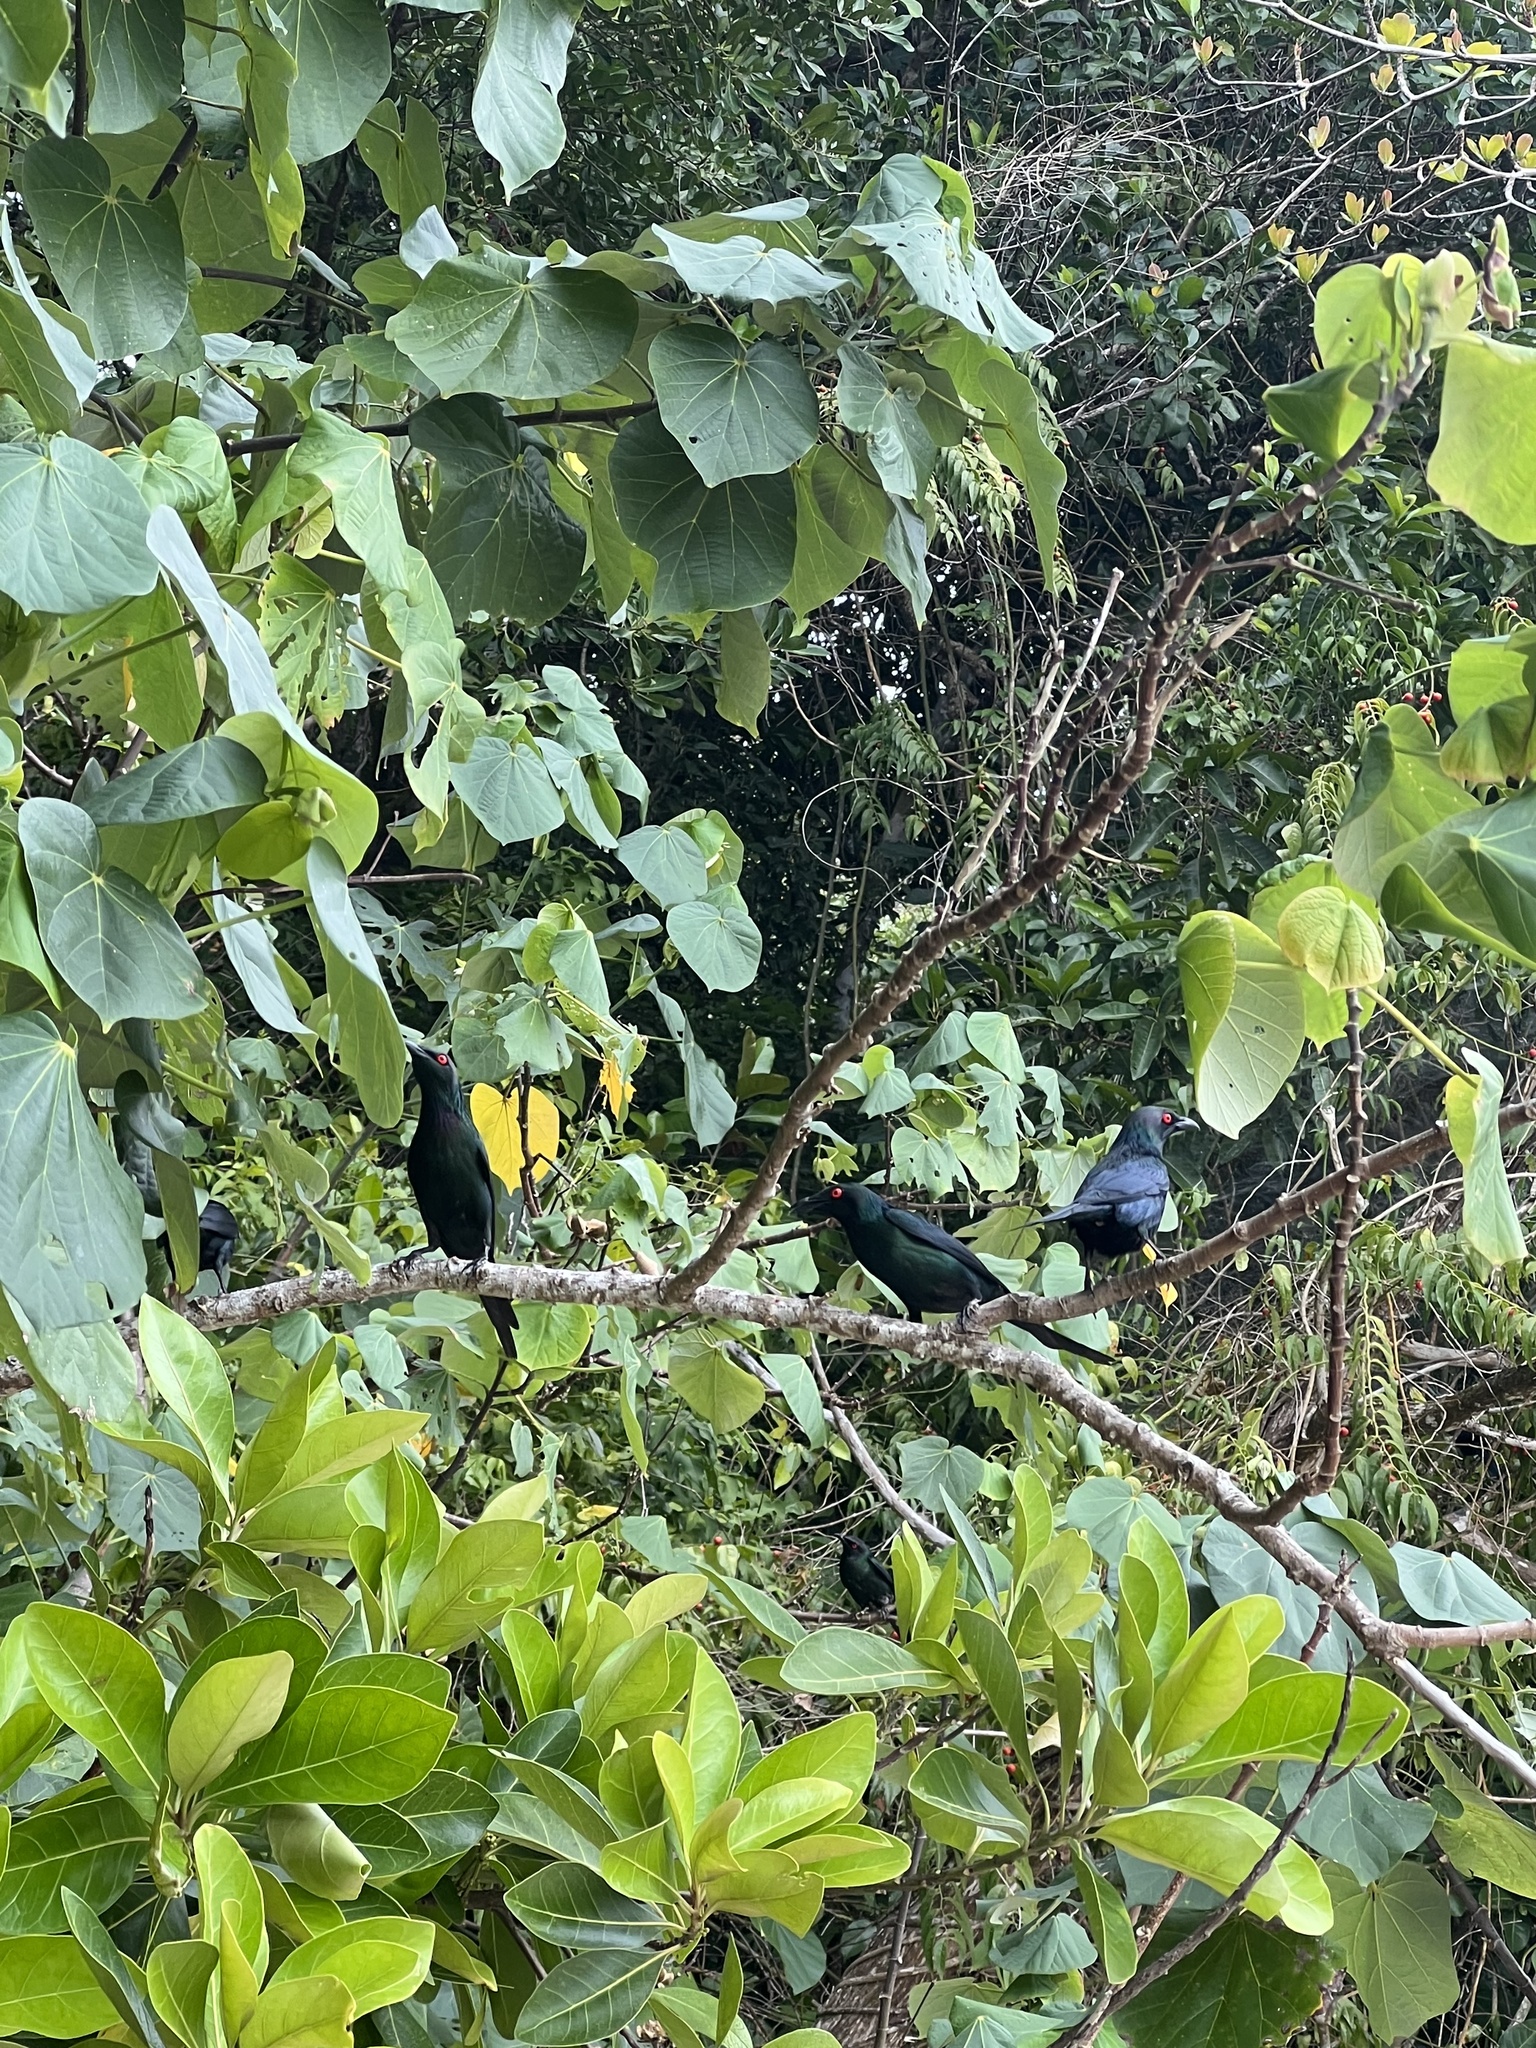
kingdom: Animalia
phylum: Chordata
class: Aves
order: Passeriformes
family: Sturnidae
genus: Aplonis
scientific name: Aplonis metallica
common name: Metallic starling
